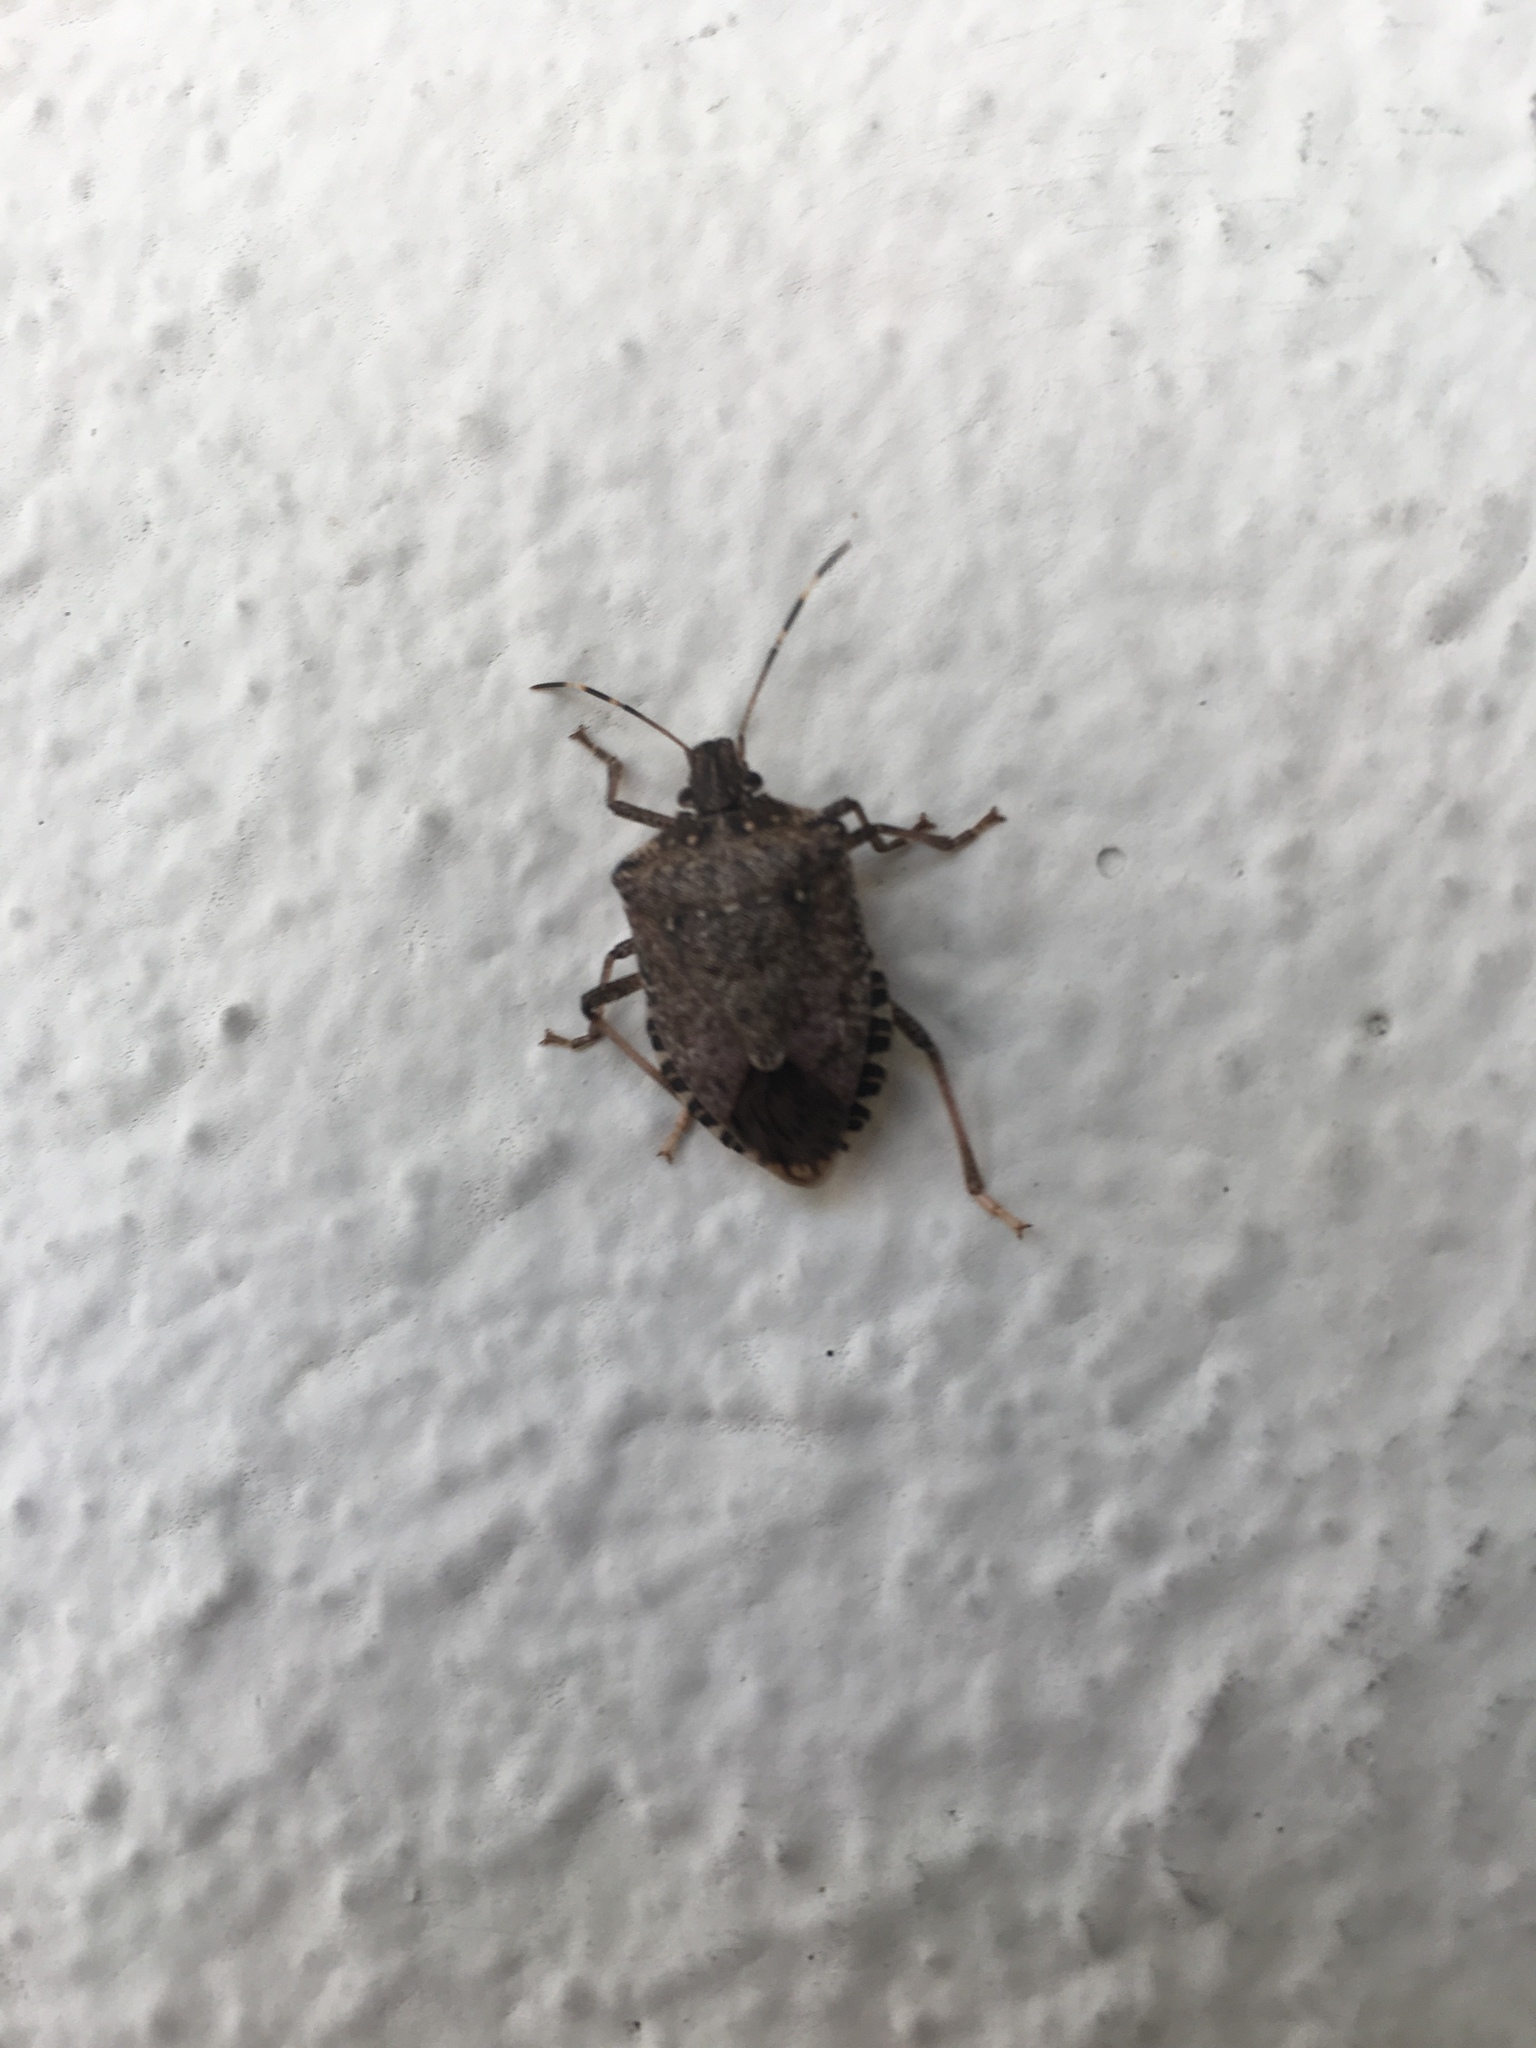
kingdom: Animalia
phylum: Arthropoda
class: Insecta
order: Hemiptera
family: Pentatomidae
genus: Halyomorpha
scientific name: Halyomorpha halys
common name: Brown marmorated stink bug
